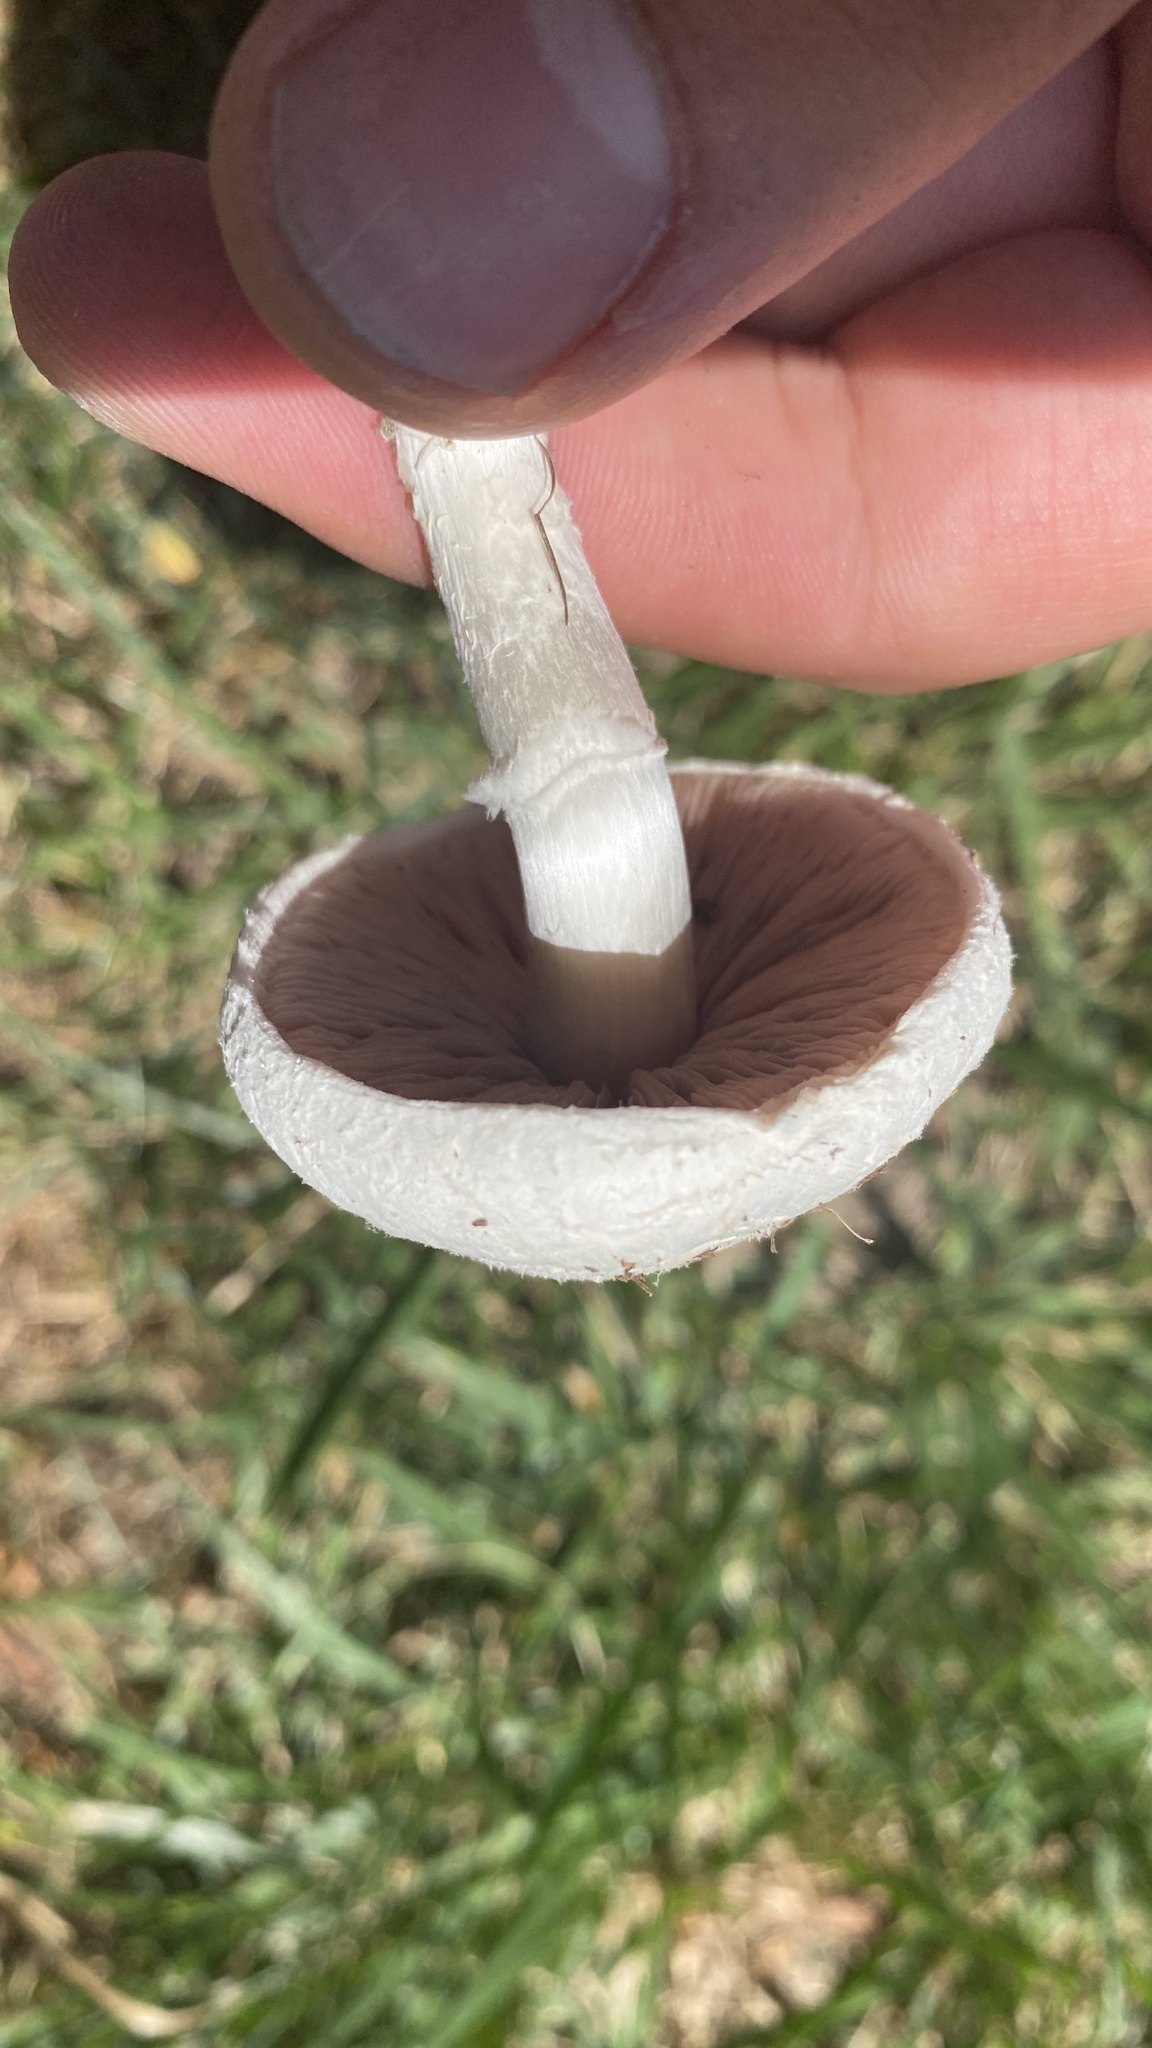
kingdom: Fungi
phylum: Basidiomycota
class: Agaricomycetes
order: Agaricales
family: Agaricaceae
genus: Agaricus
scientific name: Agaricus campestris
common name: Field mushroom
